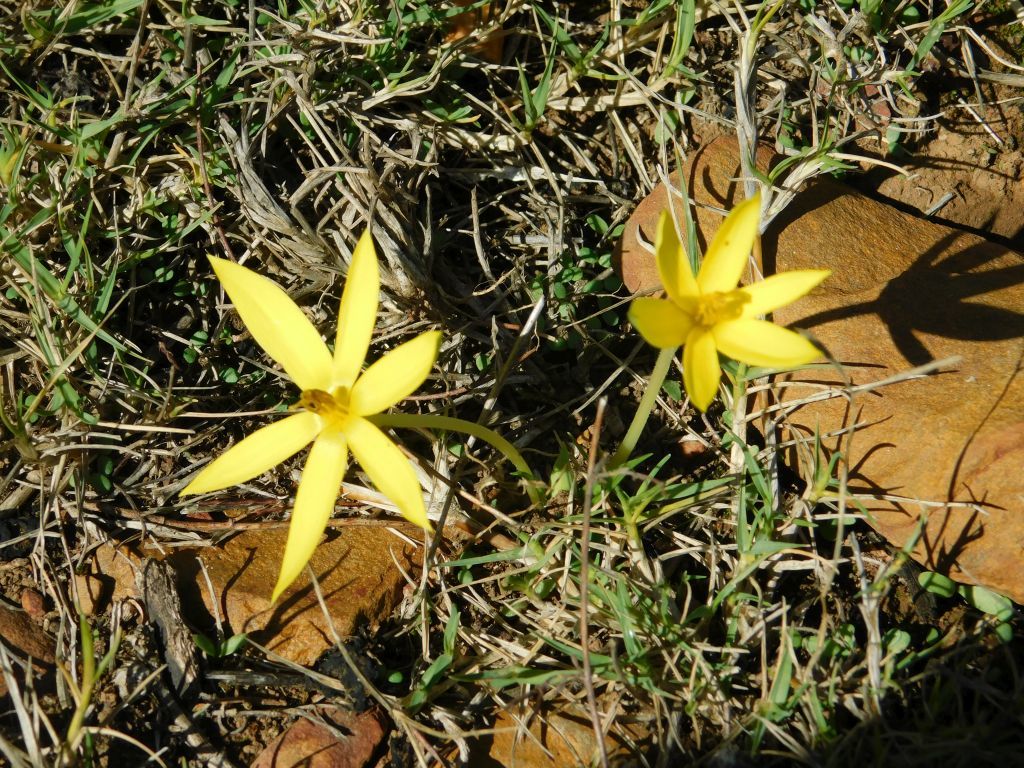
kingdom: Plantae
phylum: Tracheophyta
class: Liliopsida
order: Asparagales
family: Hypoxidaceae
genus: Empodium
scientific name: Empodium plicatum
